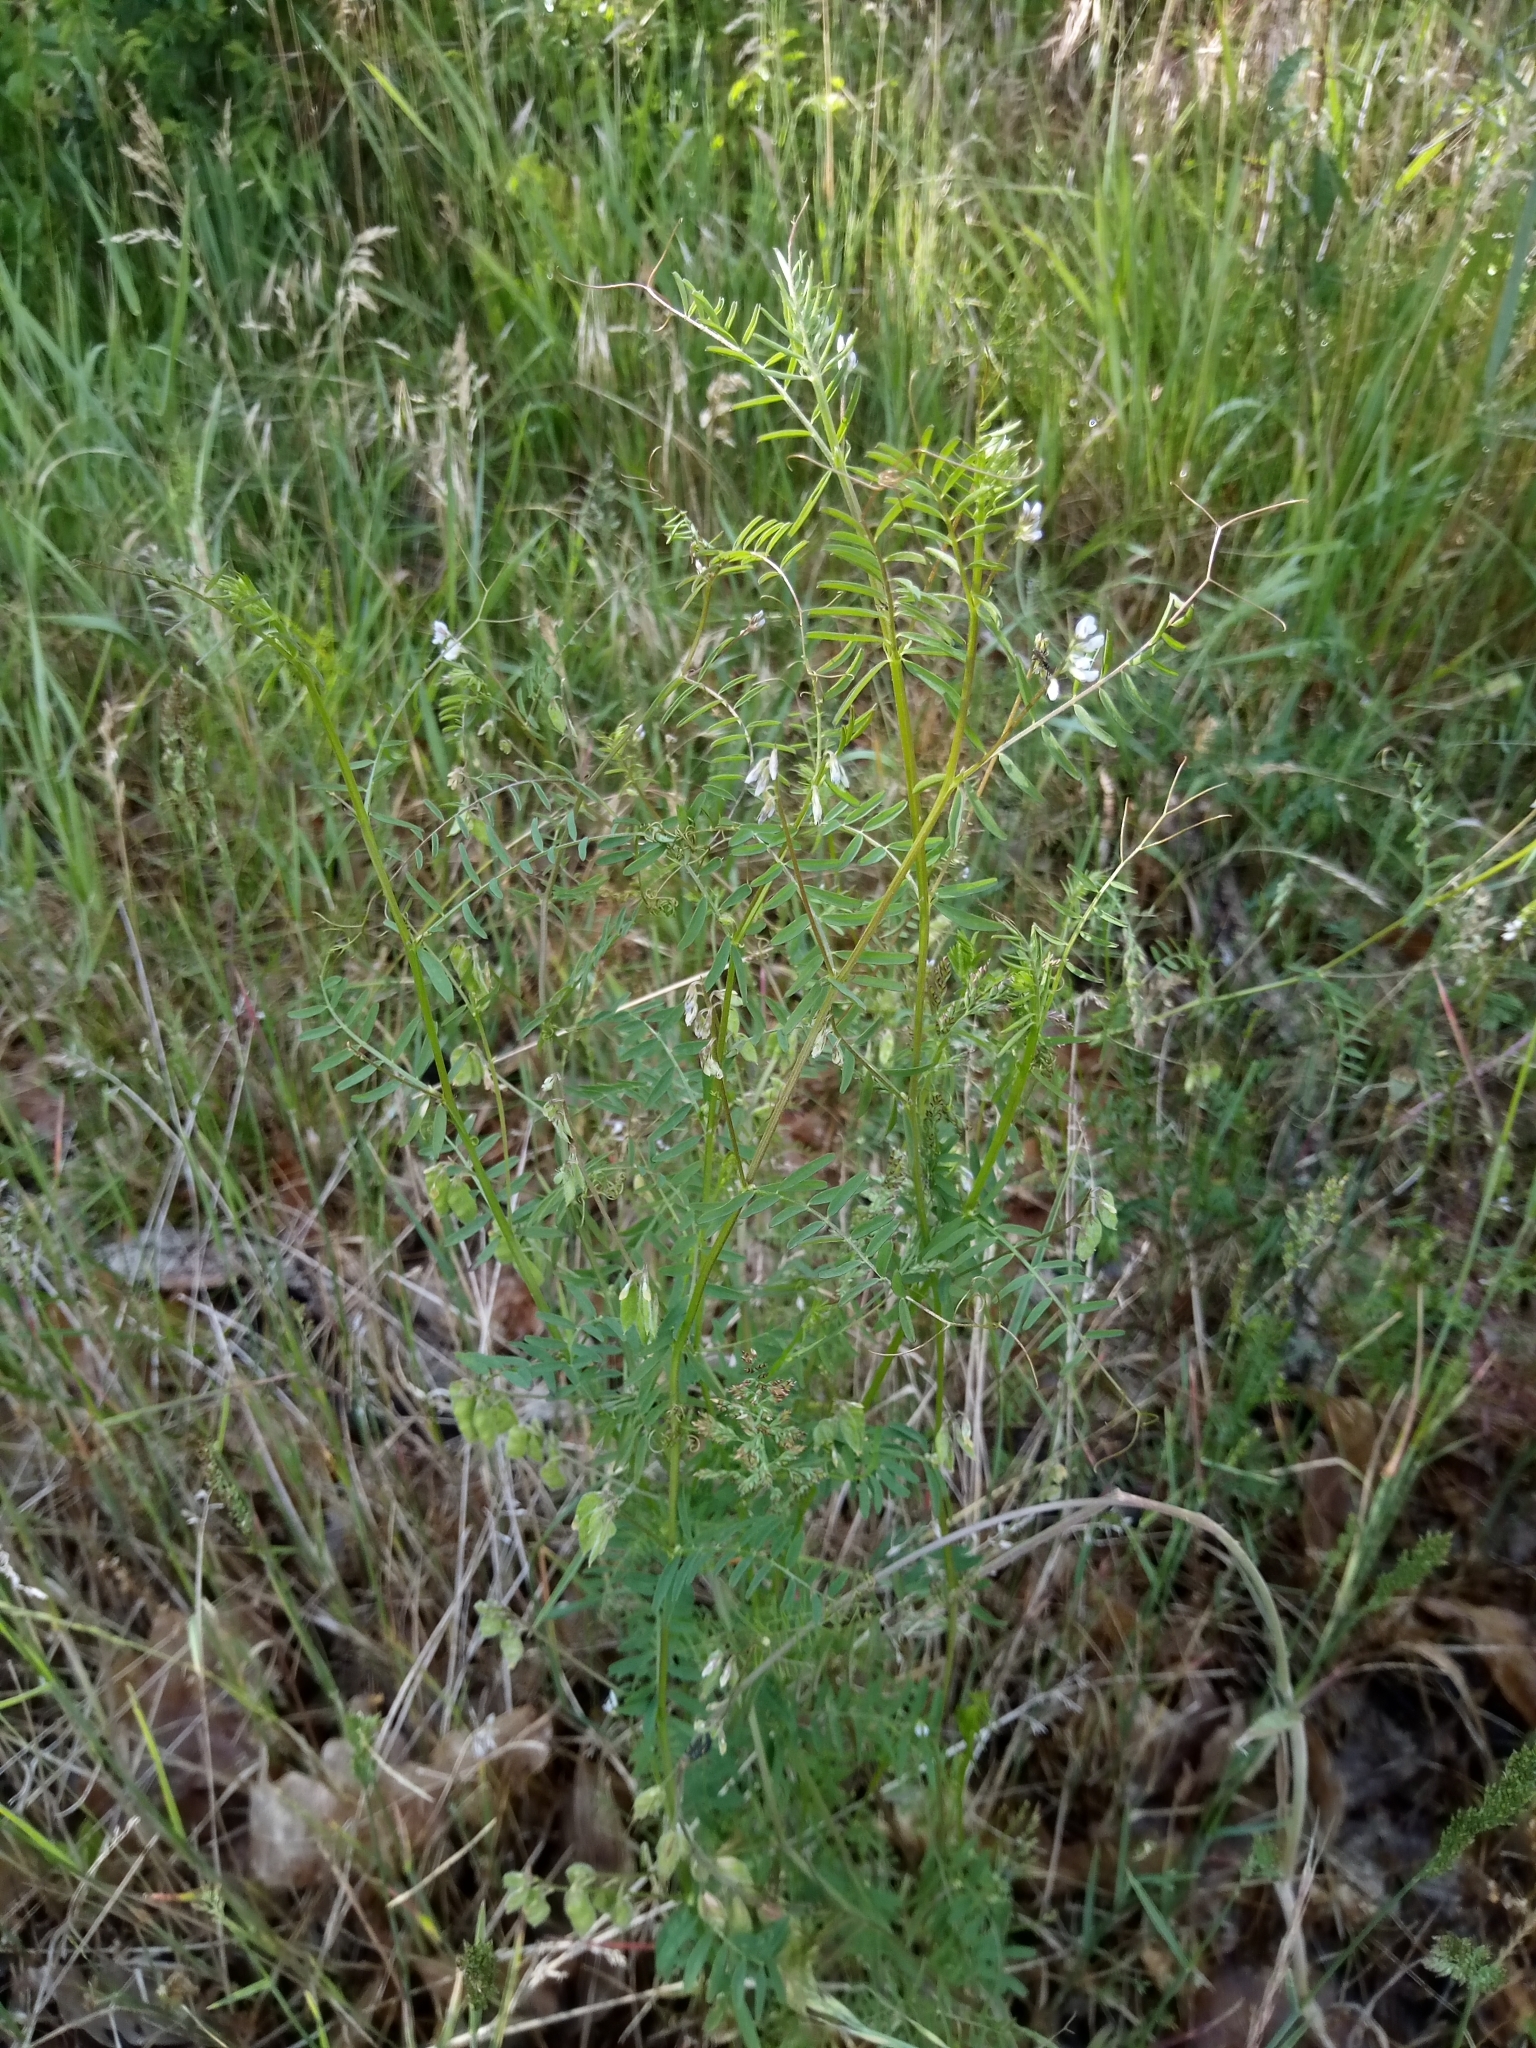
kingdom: Plantae
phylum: Tracheophyta
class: Magnoliopsida
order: Fabales
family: Fabaceae
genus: Vicia
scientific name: Vicia hirsuta
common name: Tiny vetch
